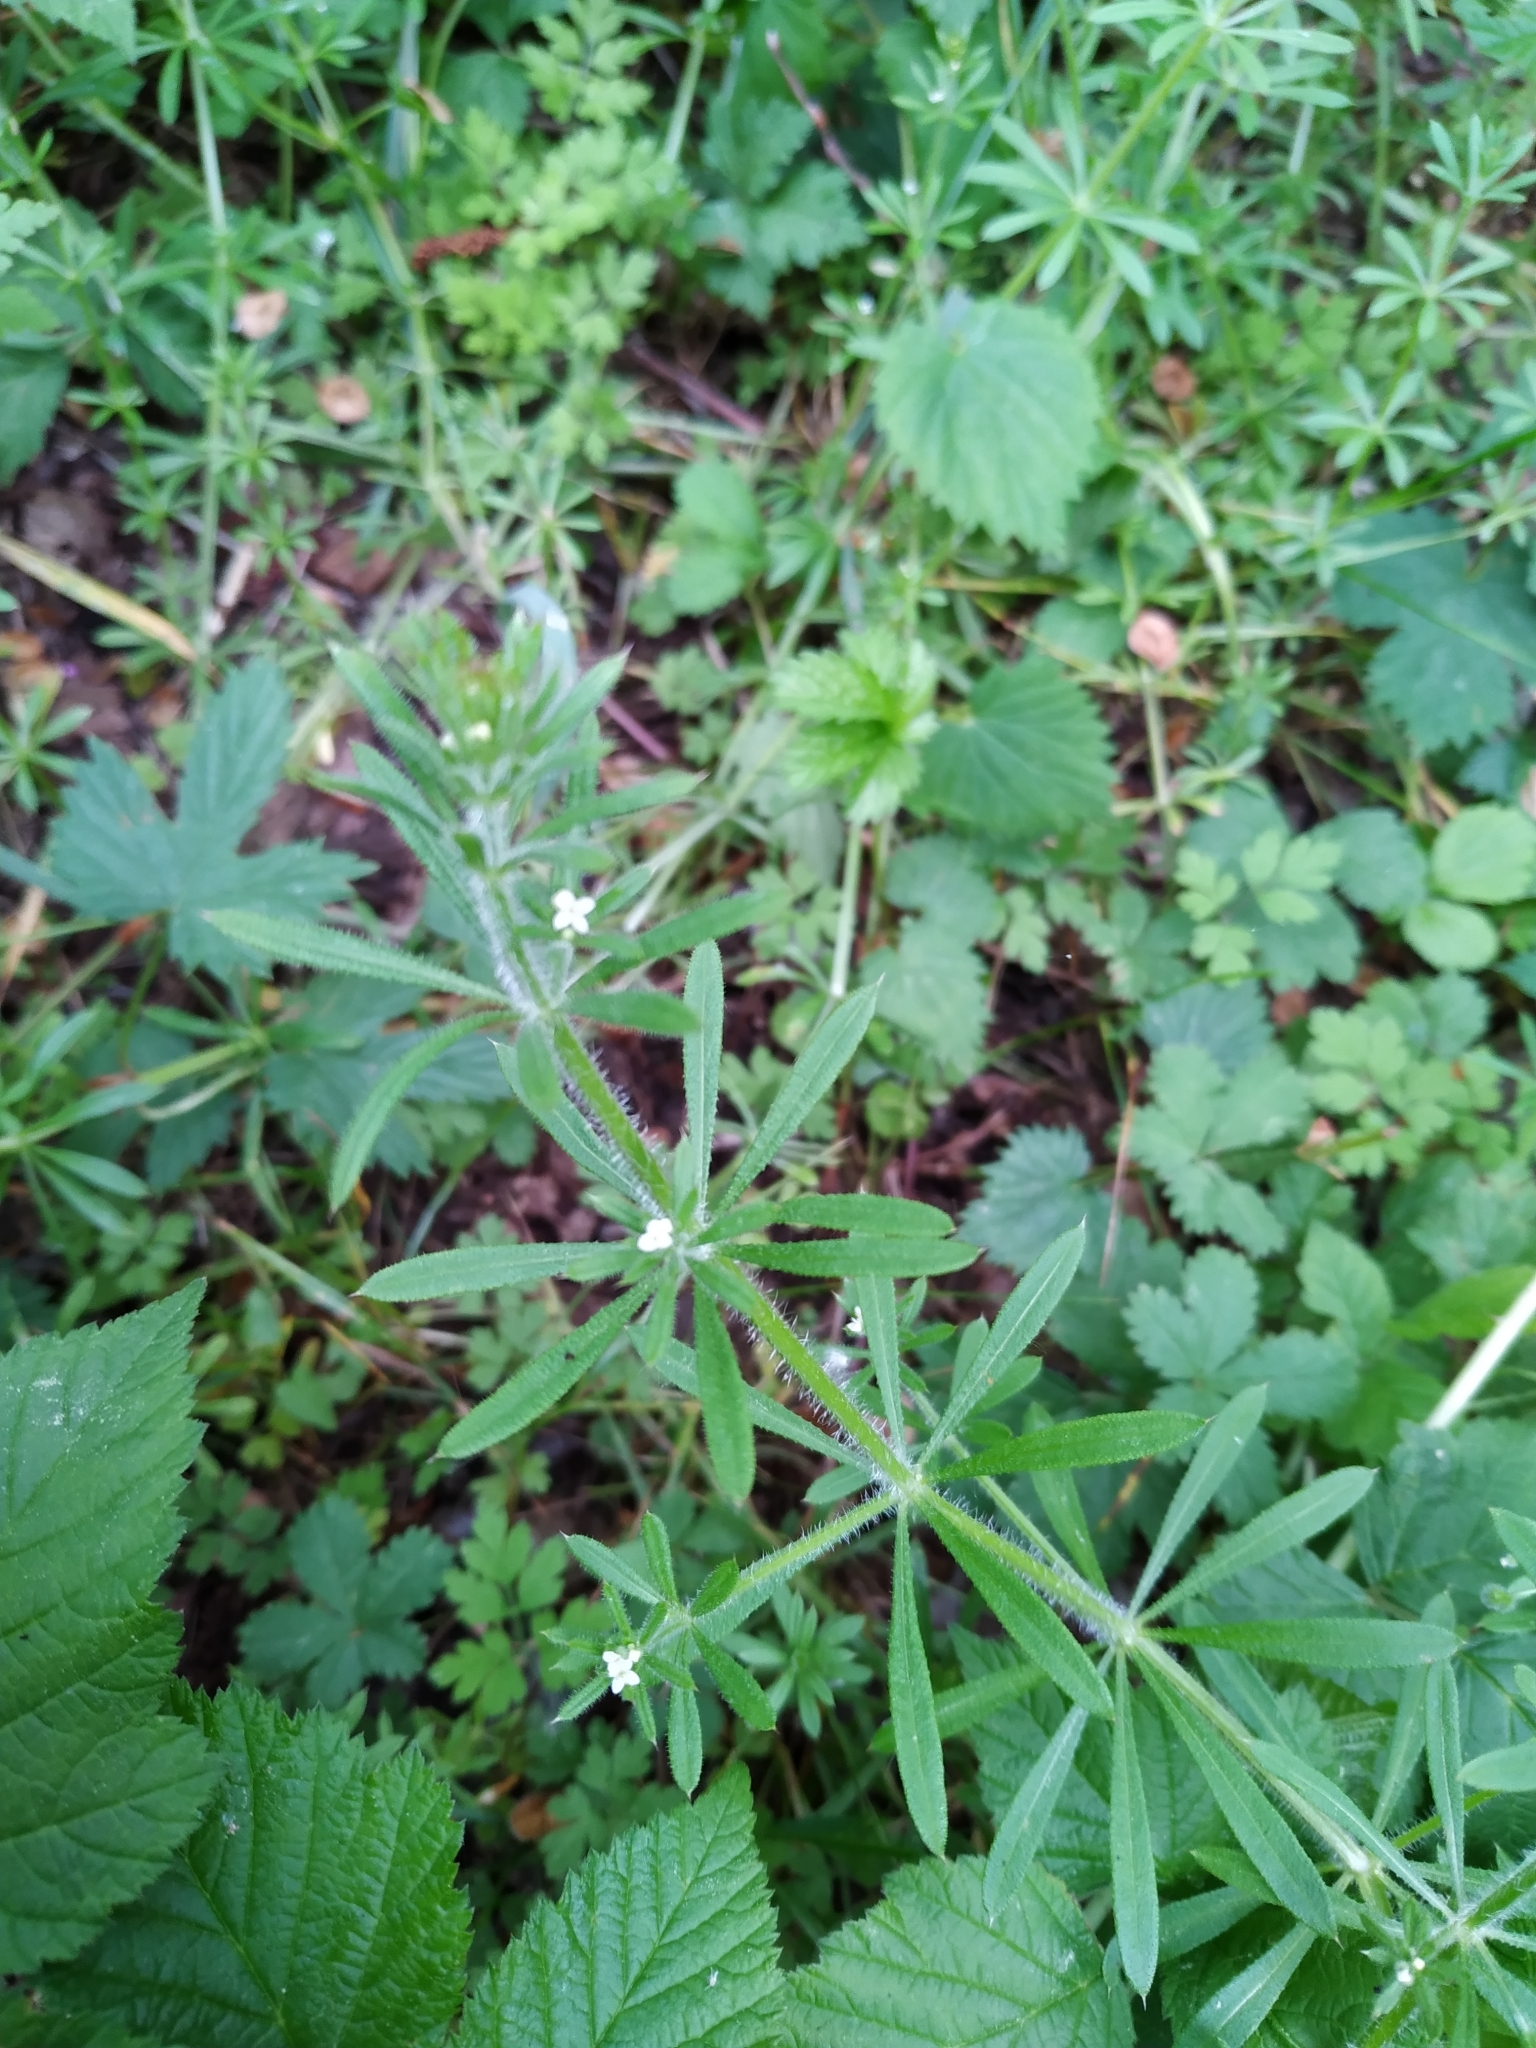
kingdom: Plantae
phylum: Tracheophyta
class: Magnoliopsida
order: Gentianales
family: Rubiaceae
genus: Galium
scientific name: Galium aparine
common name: Cleavers
